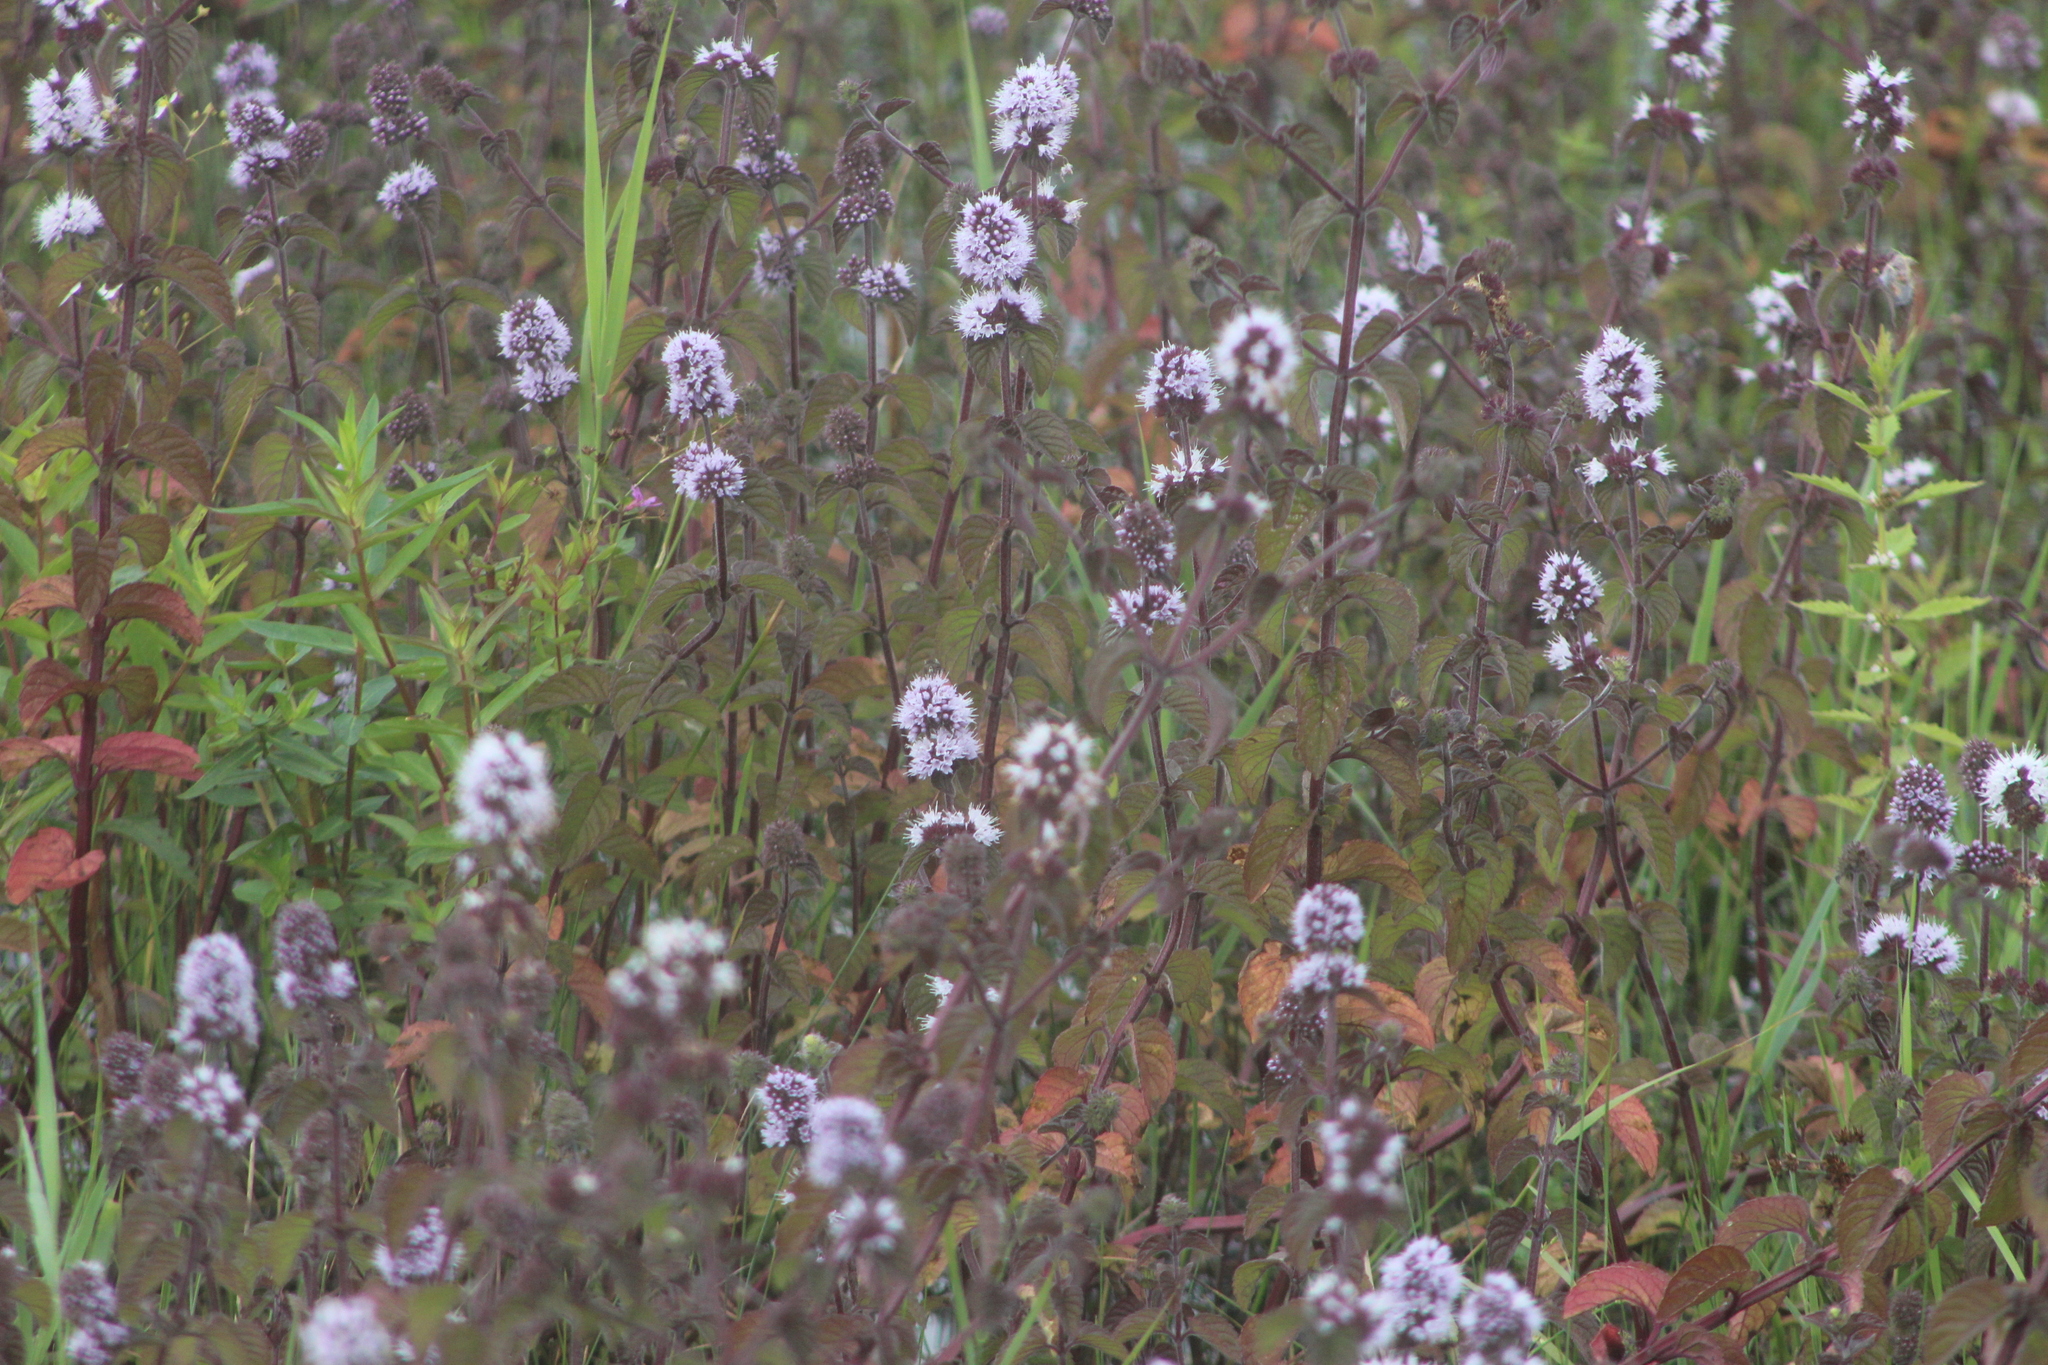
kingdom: Plantae
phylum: Tracheophyta
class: Magnoliopsida
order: Lamiales
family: Lamiaceae
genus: Mentha
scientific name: Mentha aquatica
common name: Water mint
